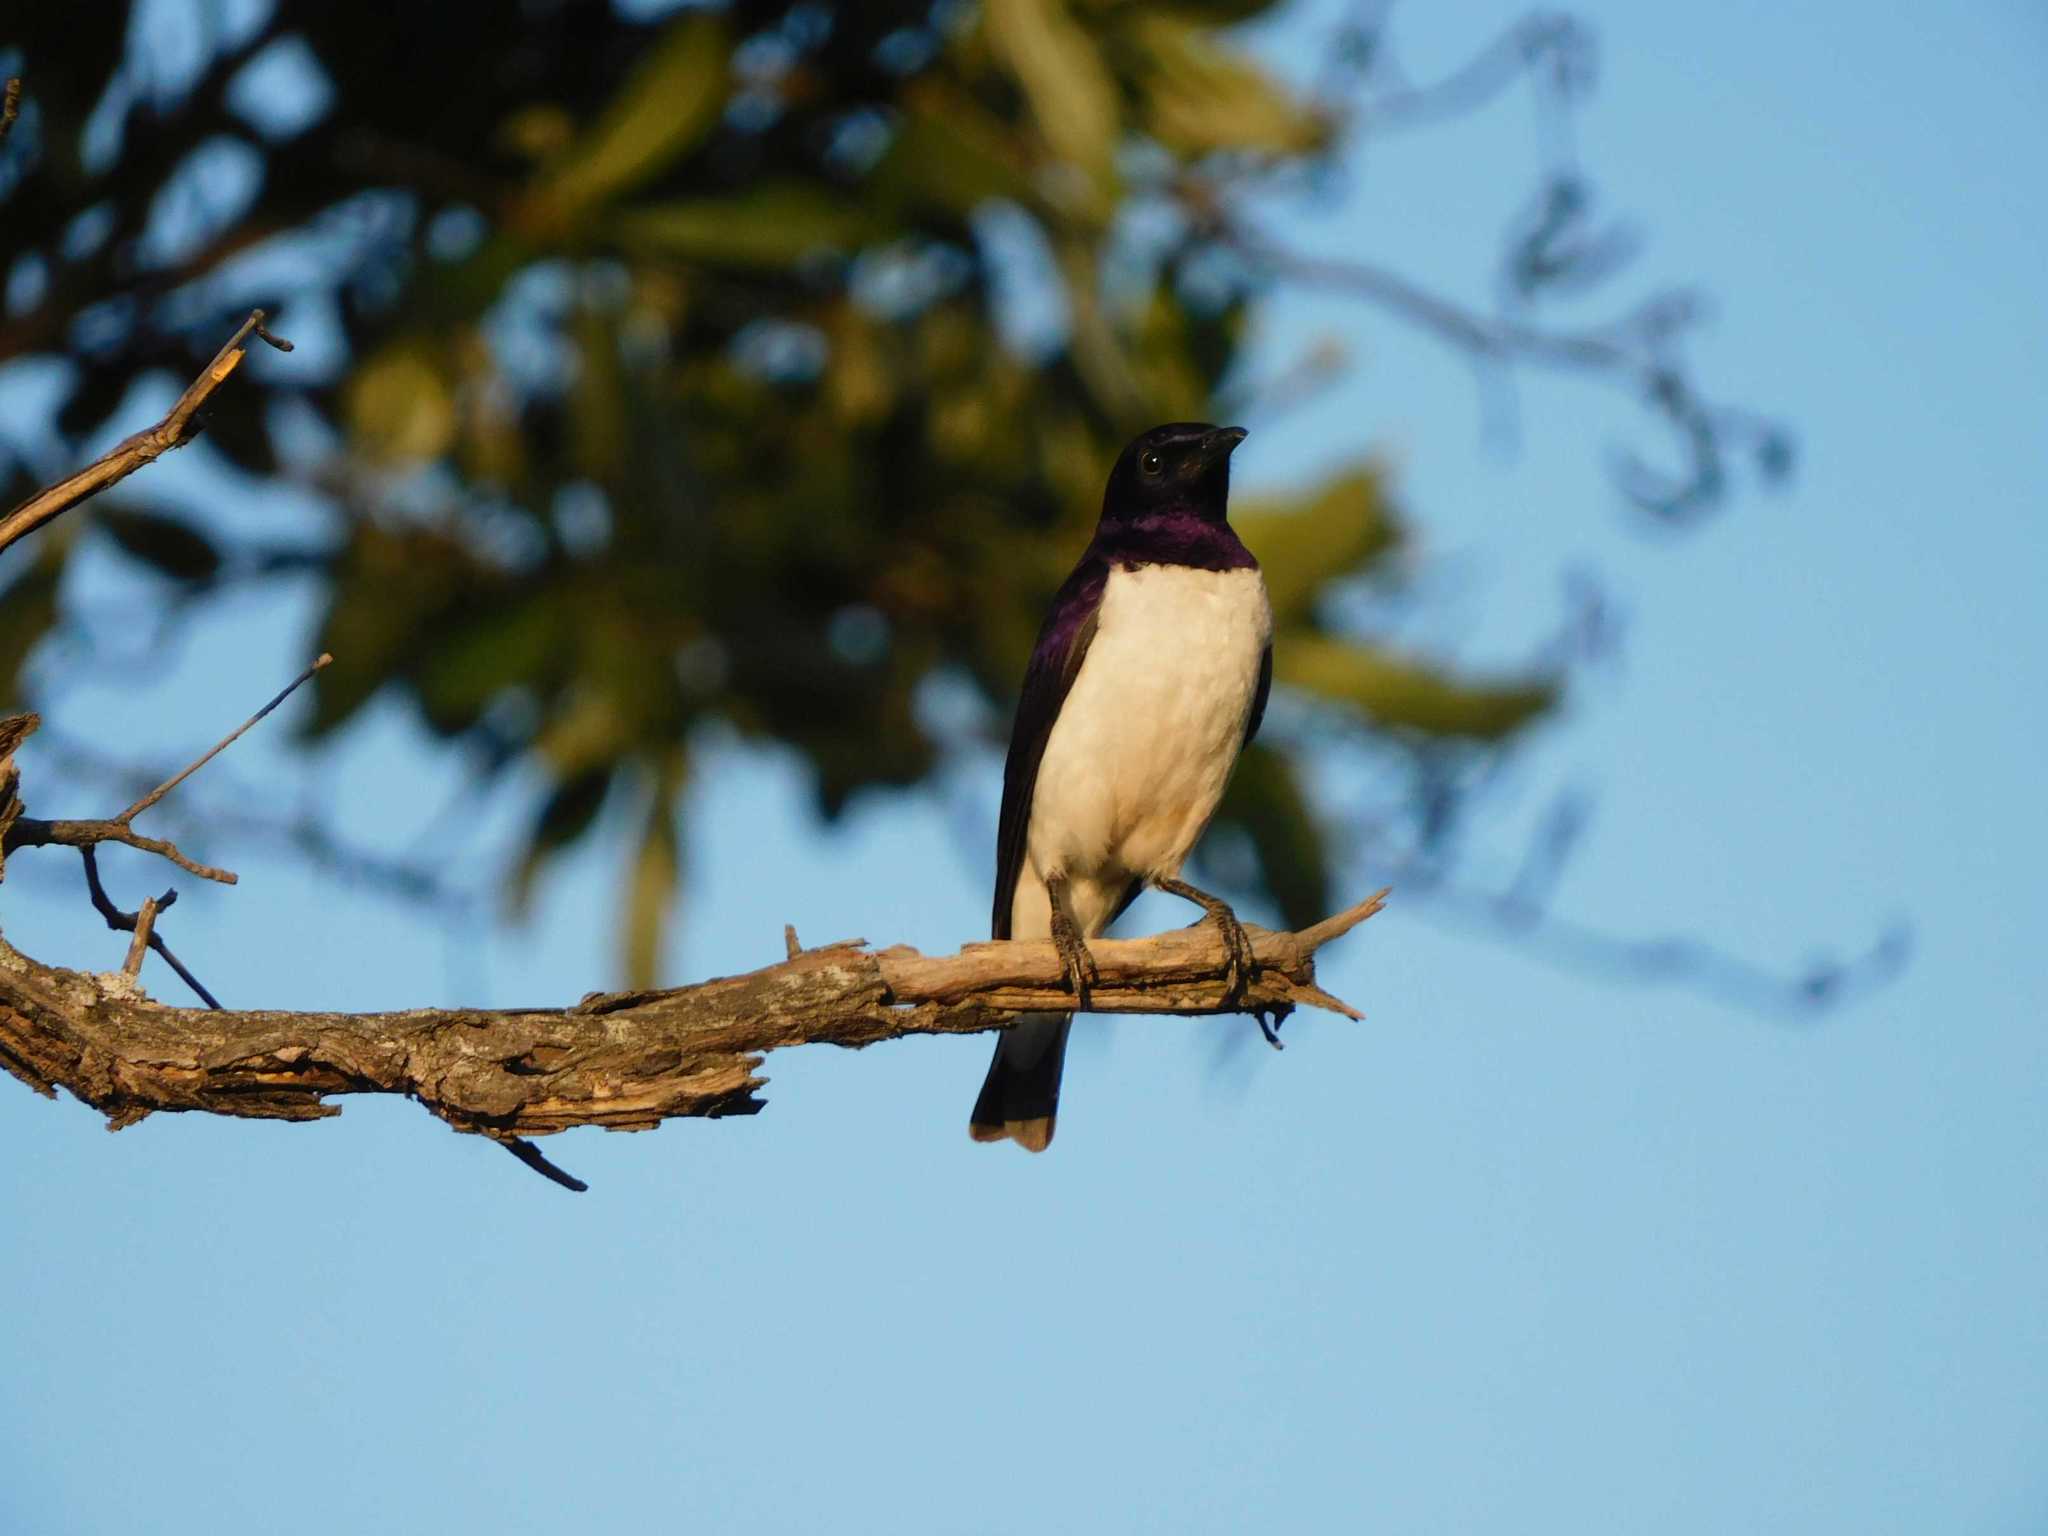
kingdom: Animalia
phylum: Chordata
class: Aves
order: Passeriformes
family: Sturnidae
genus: Cinnyricinclus
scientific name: Cinnyricinclus leucogaster
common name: Violet-backed starling
